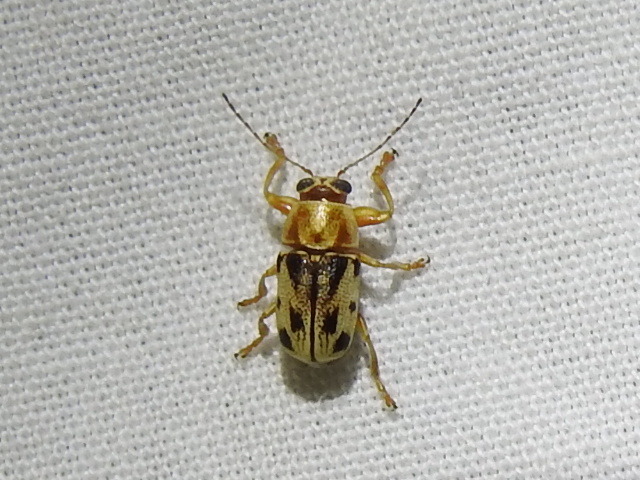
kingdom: Animalia
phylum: Arthropoda
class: Insecta
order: Coleoptera
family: Chrysomelidae
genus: Pachybrachis
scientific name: Pachybrachis bivittatus
